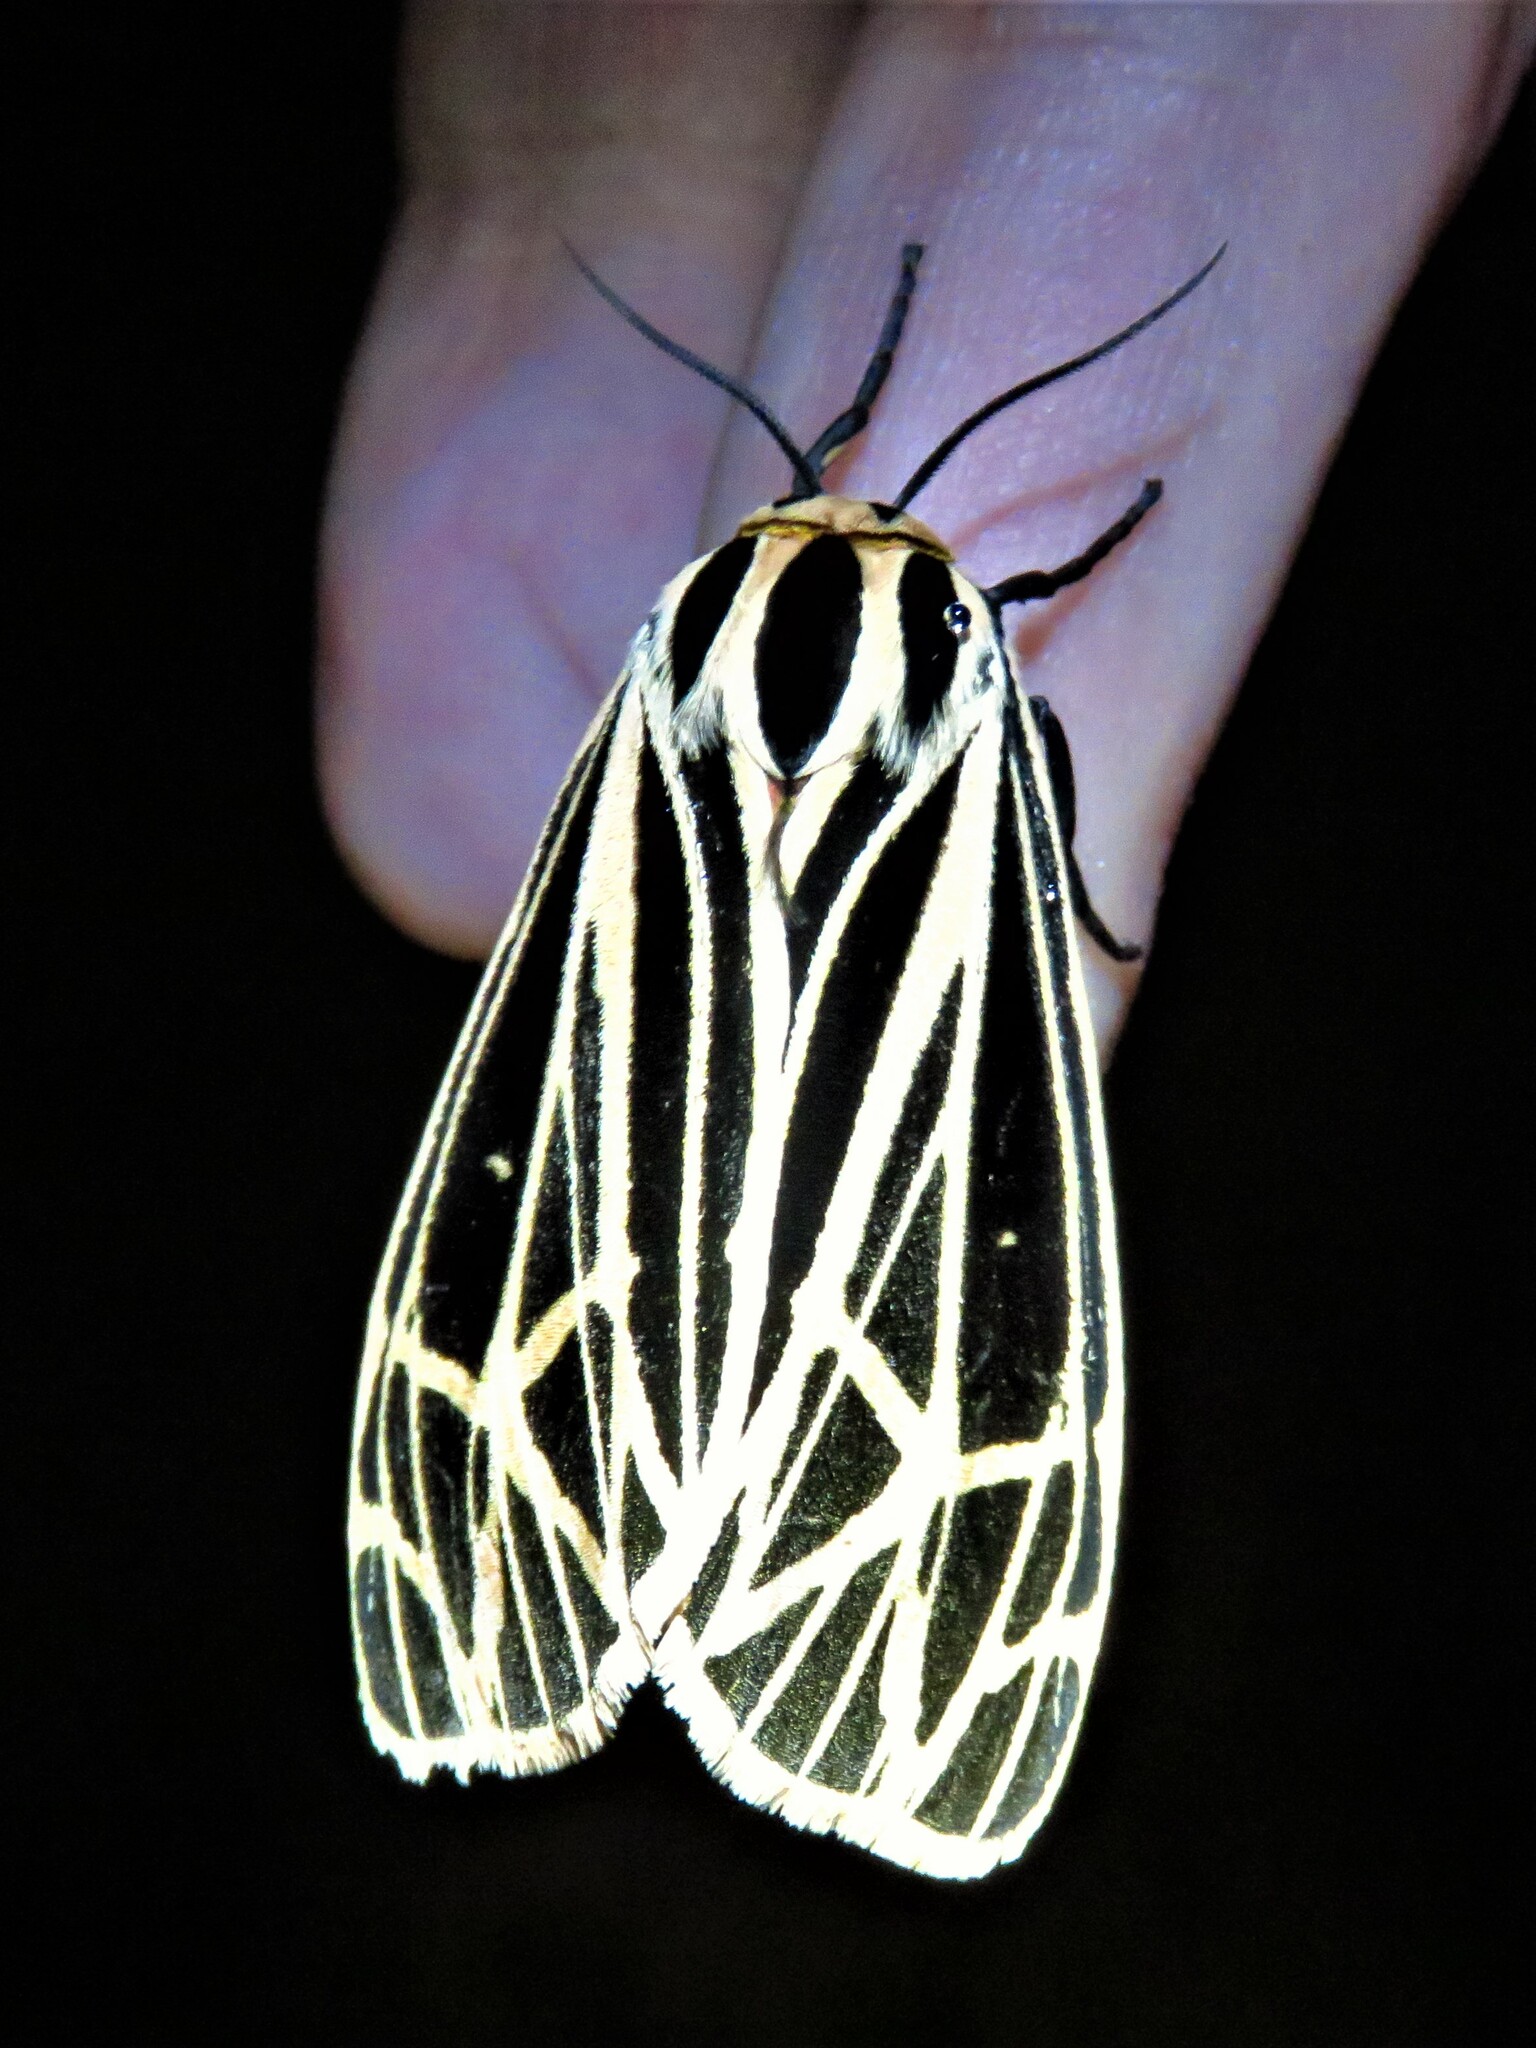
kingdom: Animalia
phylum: Arthropoda
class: Insecta
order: Lepidoptera
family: Erebidae
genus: Grammia
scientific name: Grammia virgo
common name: Virgin tiger moth
